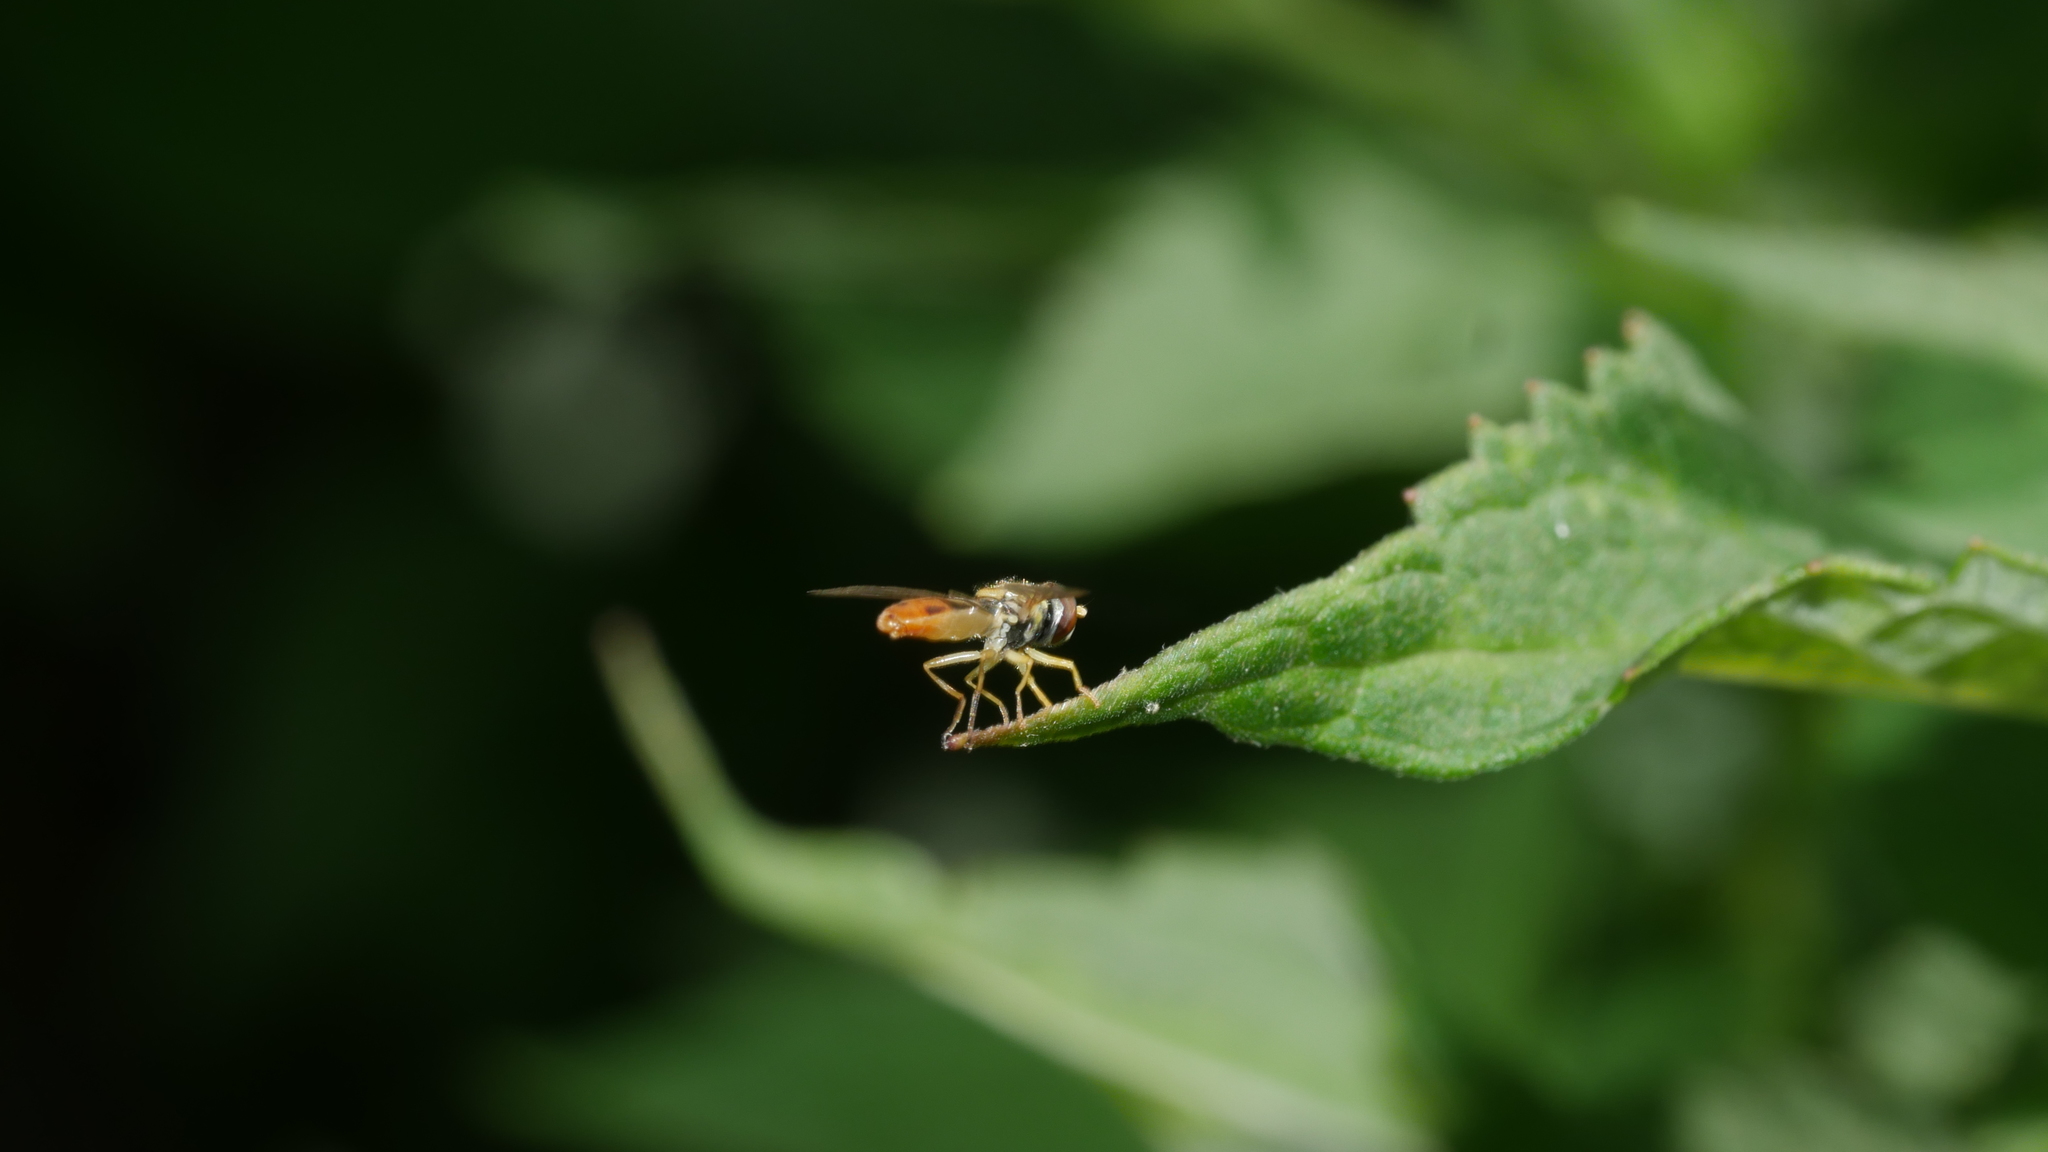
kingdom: Animalia
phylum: Arthropoda
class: Insecta
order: Diptera
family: Syrphidae
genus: Toxomerus
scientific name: Toxomerus marginatus
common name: Syrphid fly
